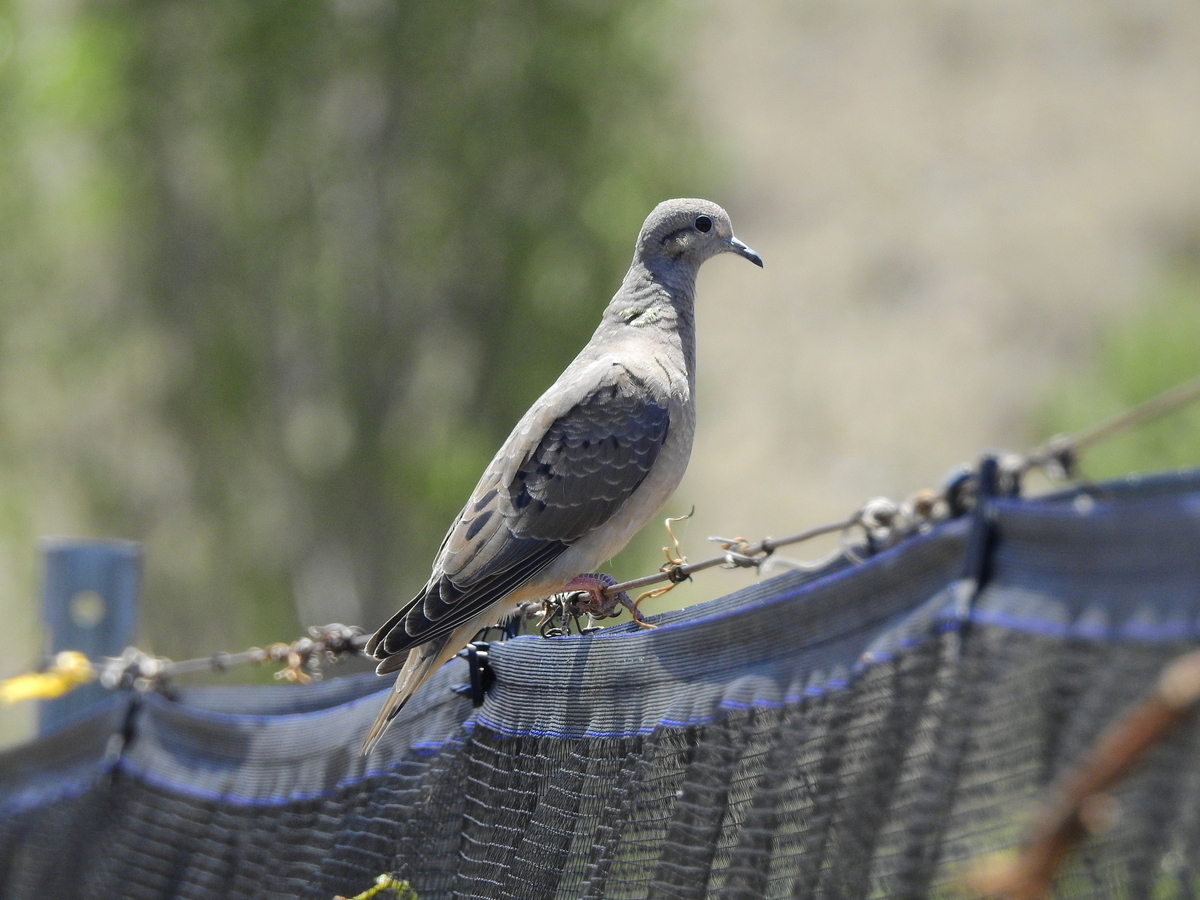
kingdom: Animalia
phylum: Chordata
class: Aves
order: Columbiformes
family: Columbidae
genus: Zenaida
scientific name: Zenaida auriculata
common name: Eared dove
